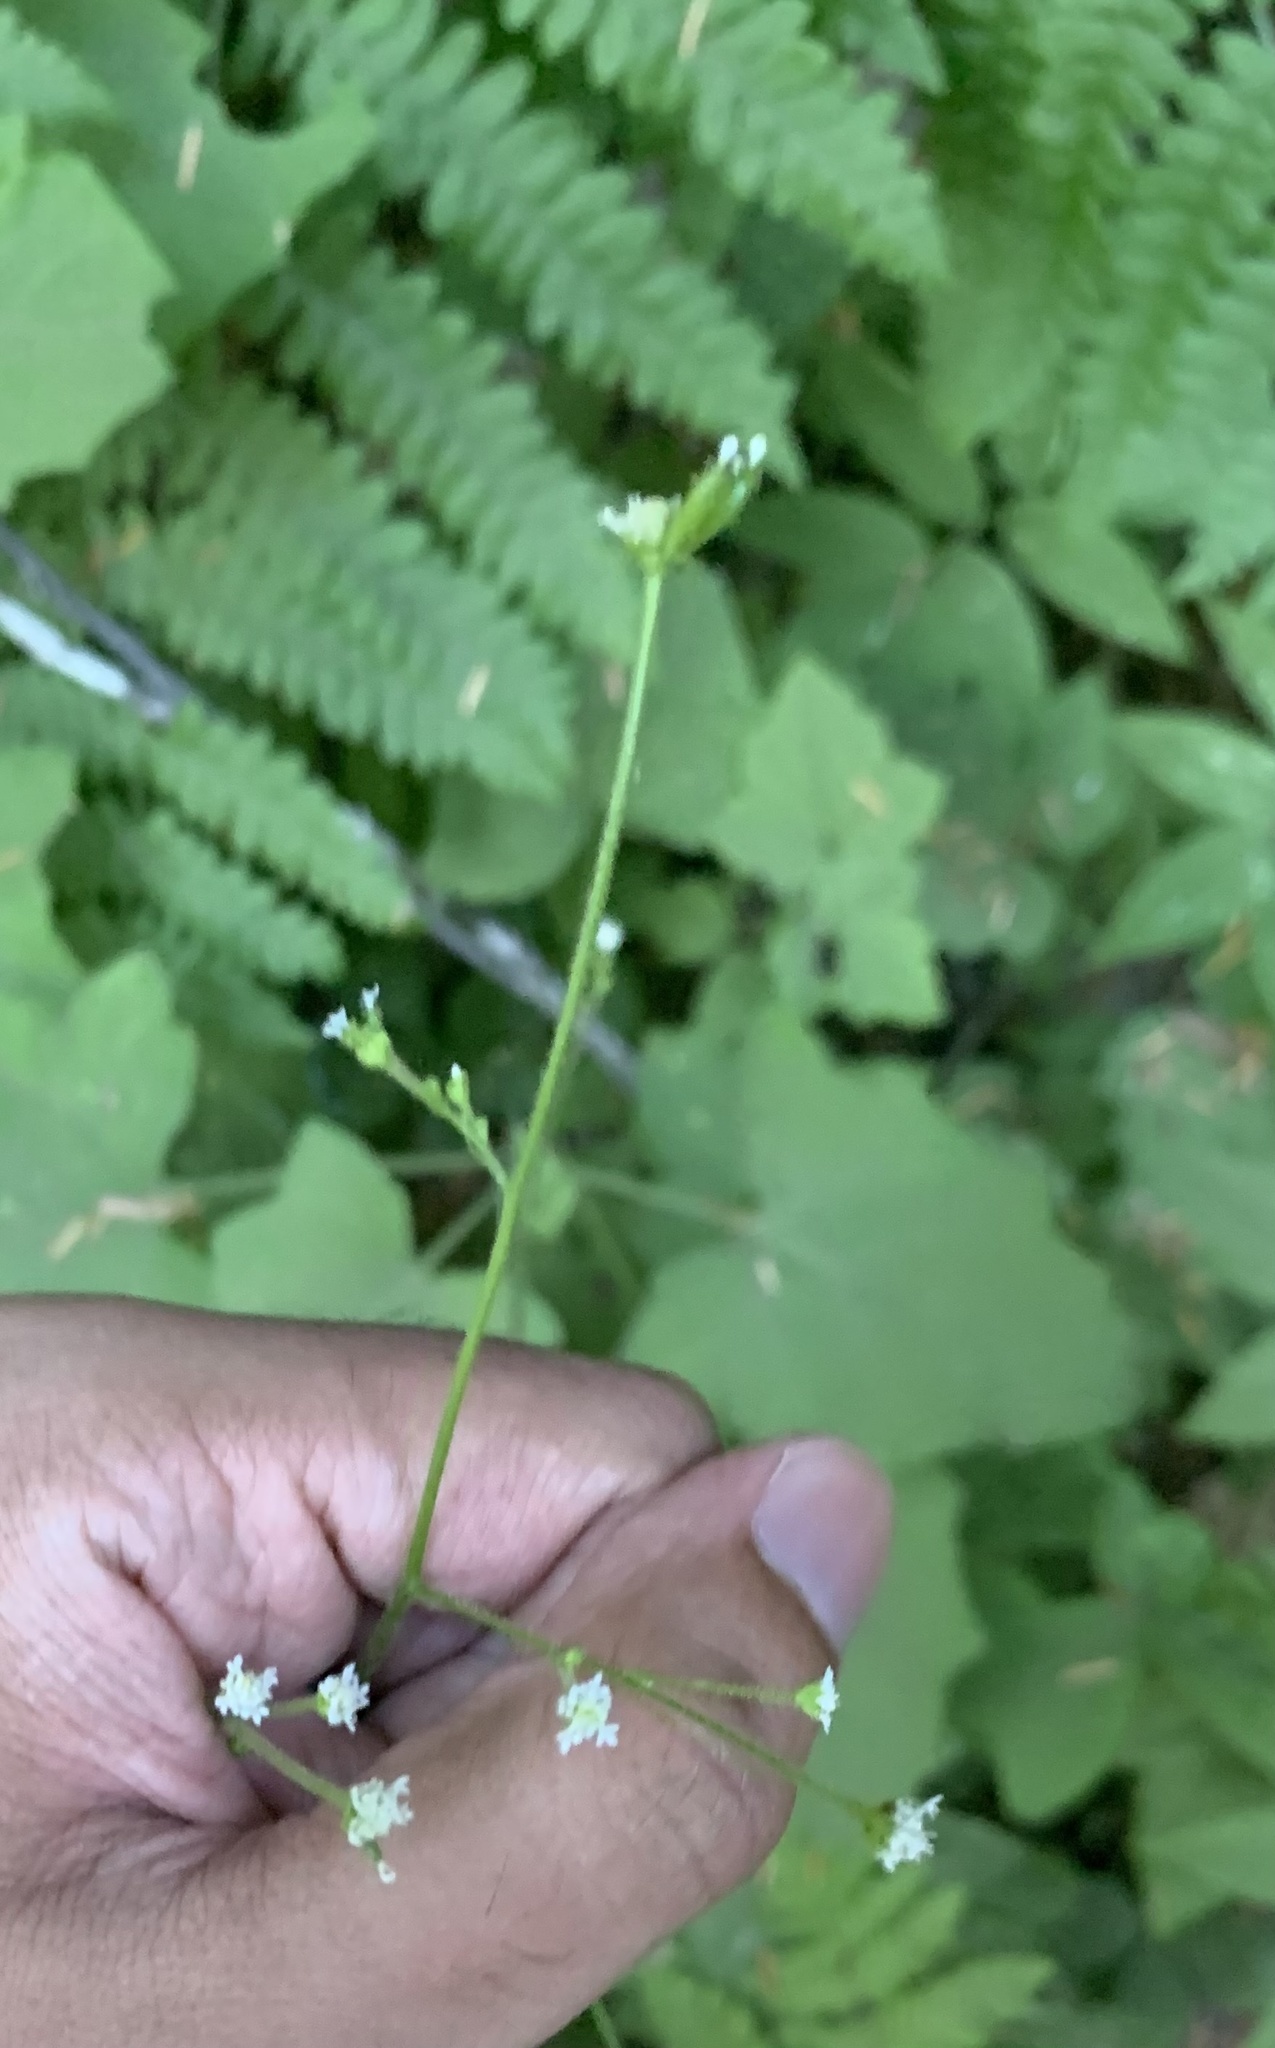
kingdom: Plantae
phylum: Tracheophyta
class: Magnoliopsida
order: Asterales
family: Asteraceae
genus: Adenocaulon
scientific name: Adenocaulon bicolor
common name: Trailplant
